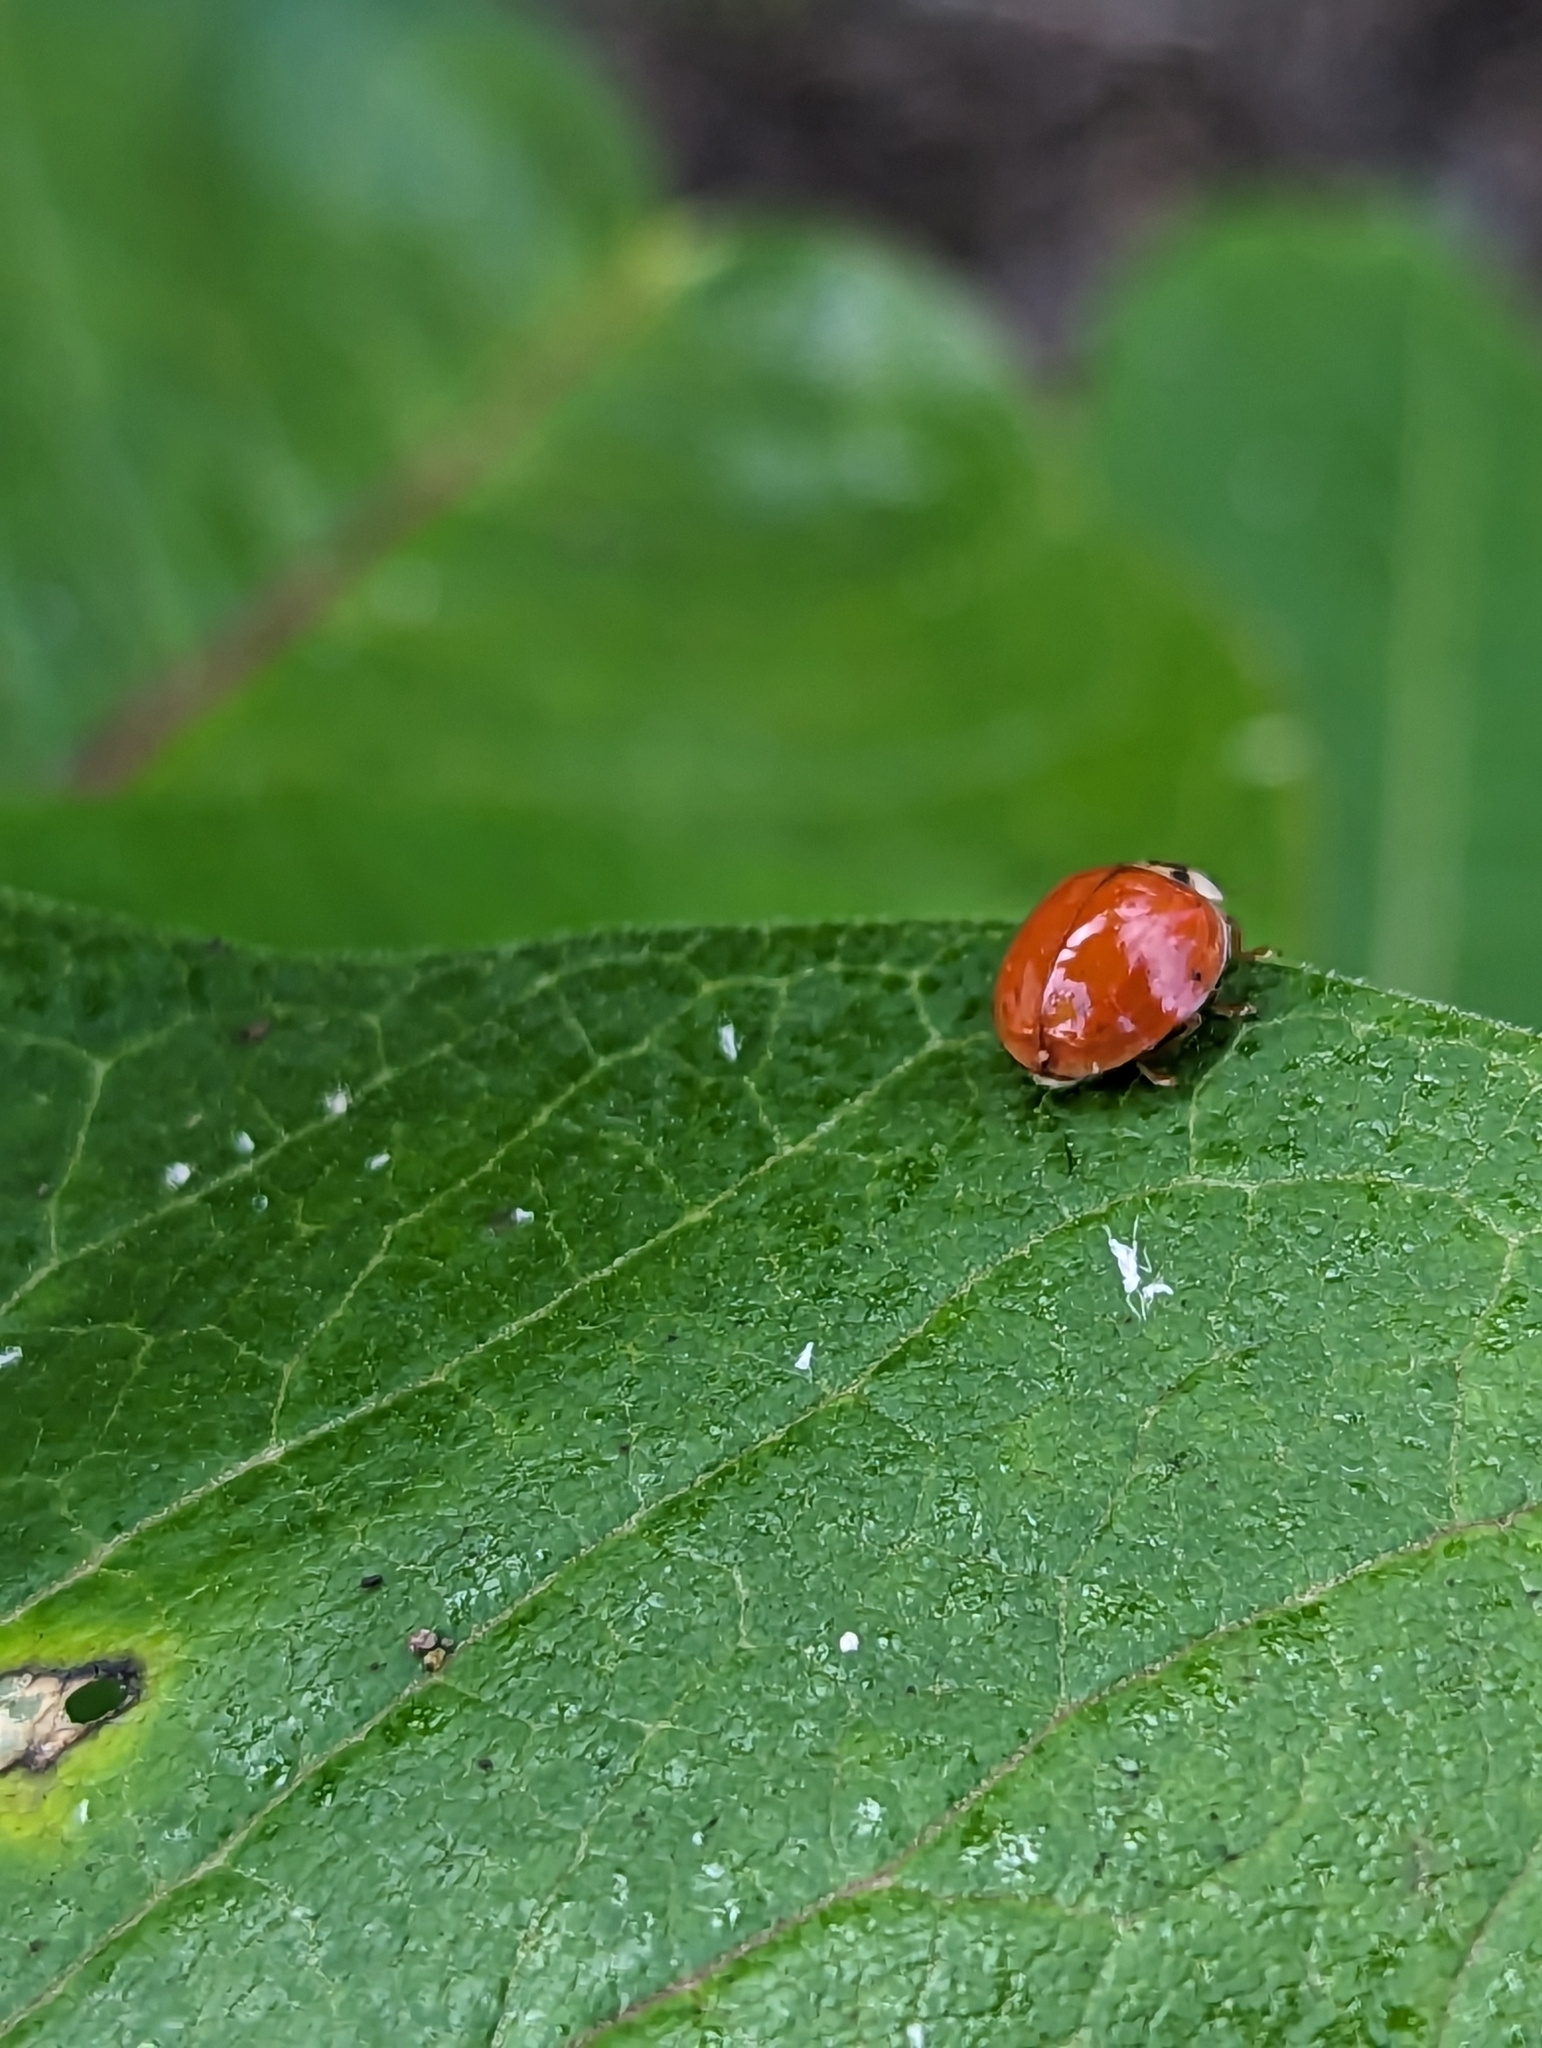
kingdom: Animalia
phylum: Arthropoda
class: Insecta
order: Coleoptera
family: Coccinellidae
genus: Harmonia
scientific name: Harmonia axyridis
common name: Harlequin ladybird
